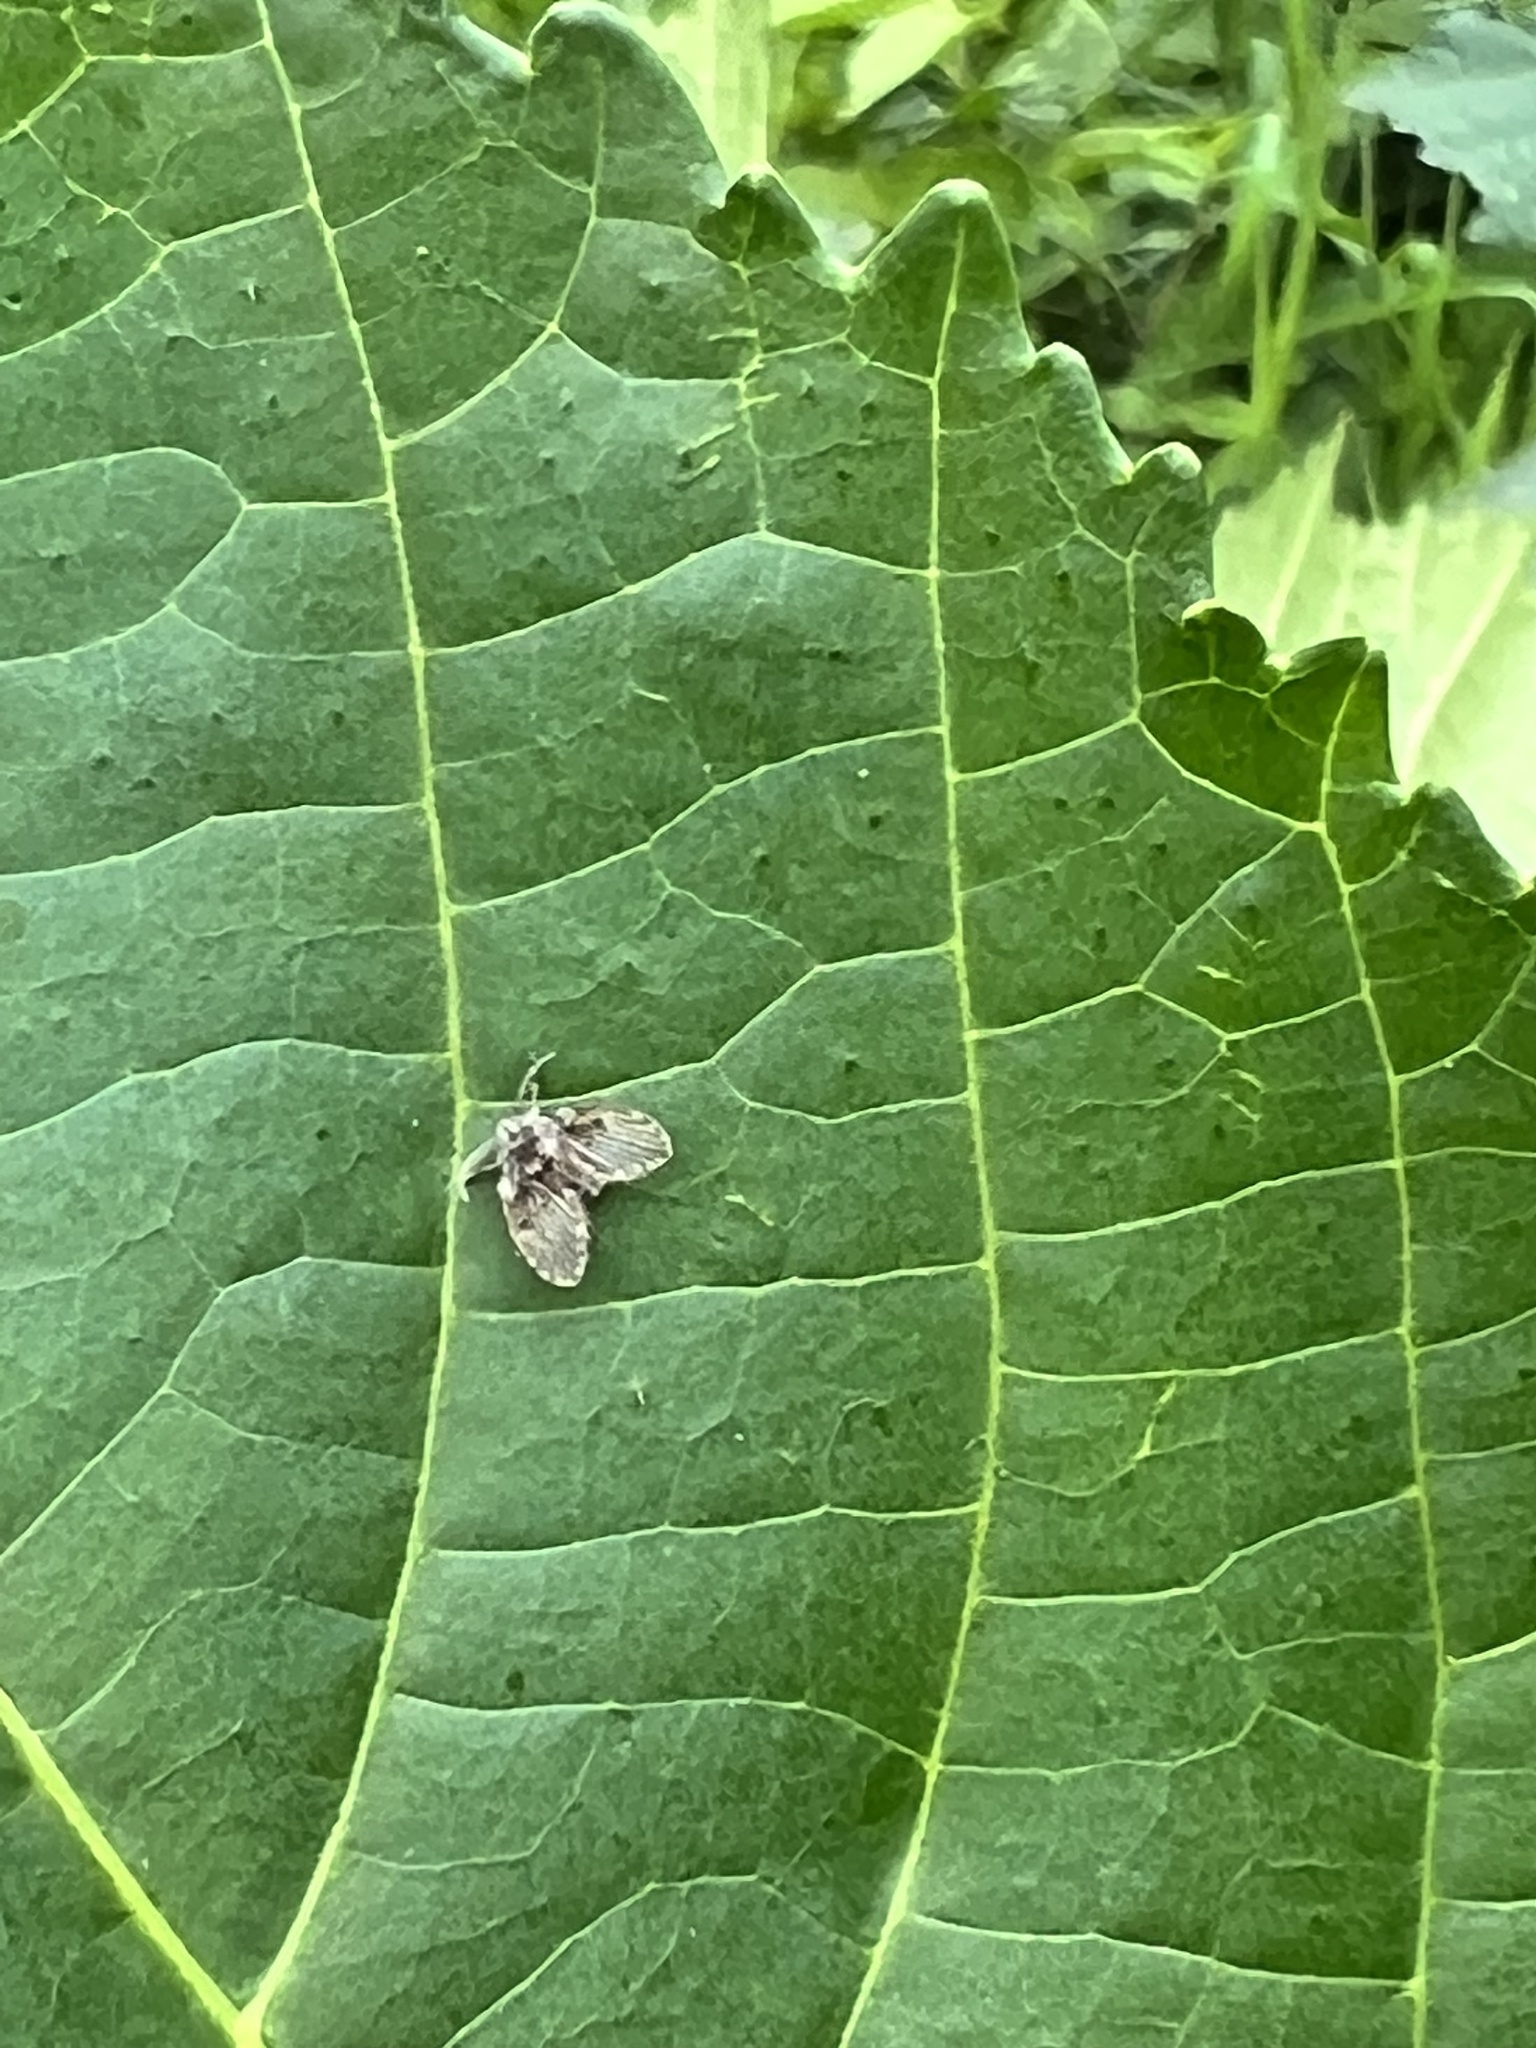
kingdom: Animalia
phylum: Arthropoda
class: Insecta
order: Diptera
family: Psychodidae
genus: Clogmia
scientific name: Clogmia albipunctatus
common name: White-spotted moth fly
